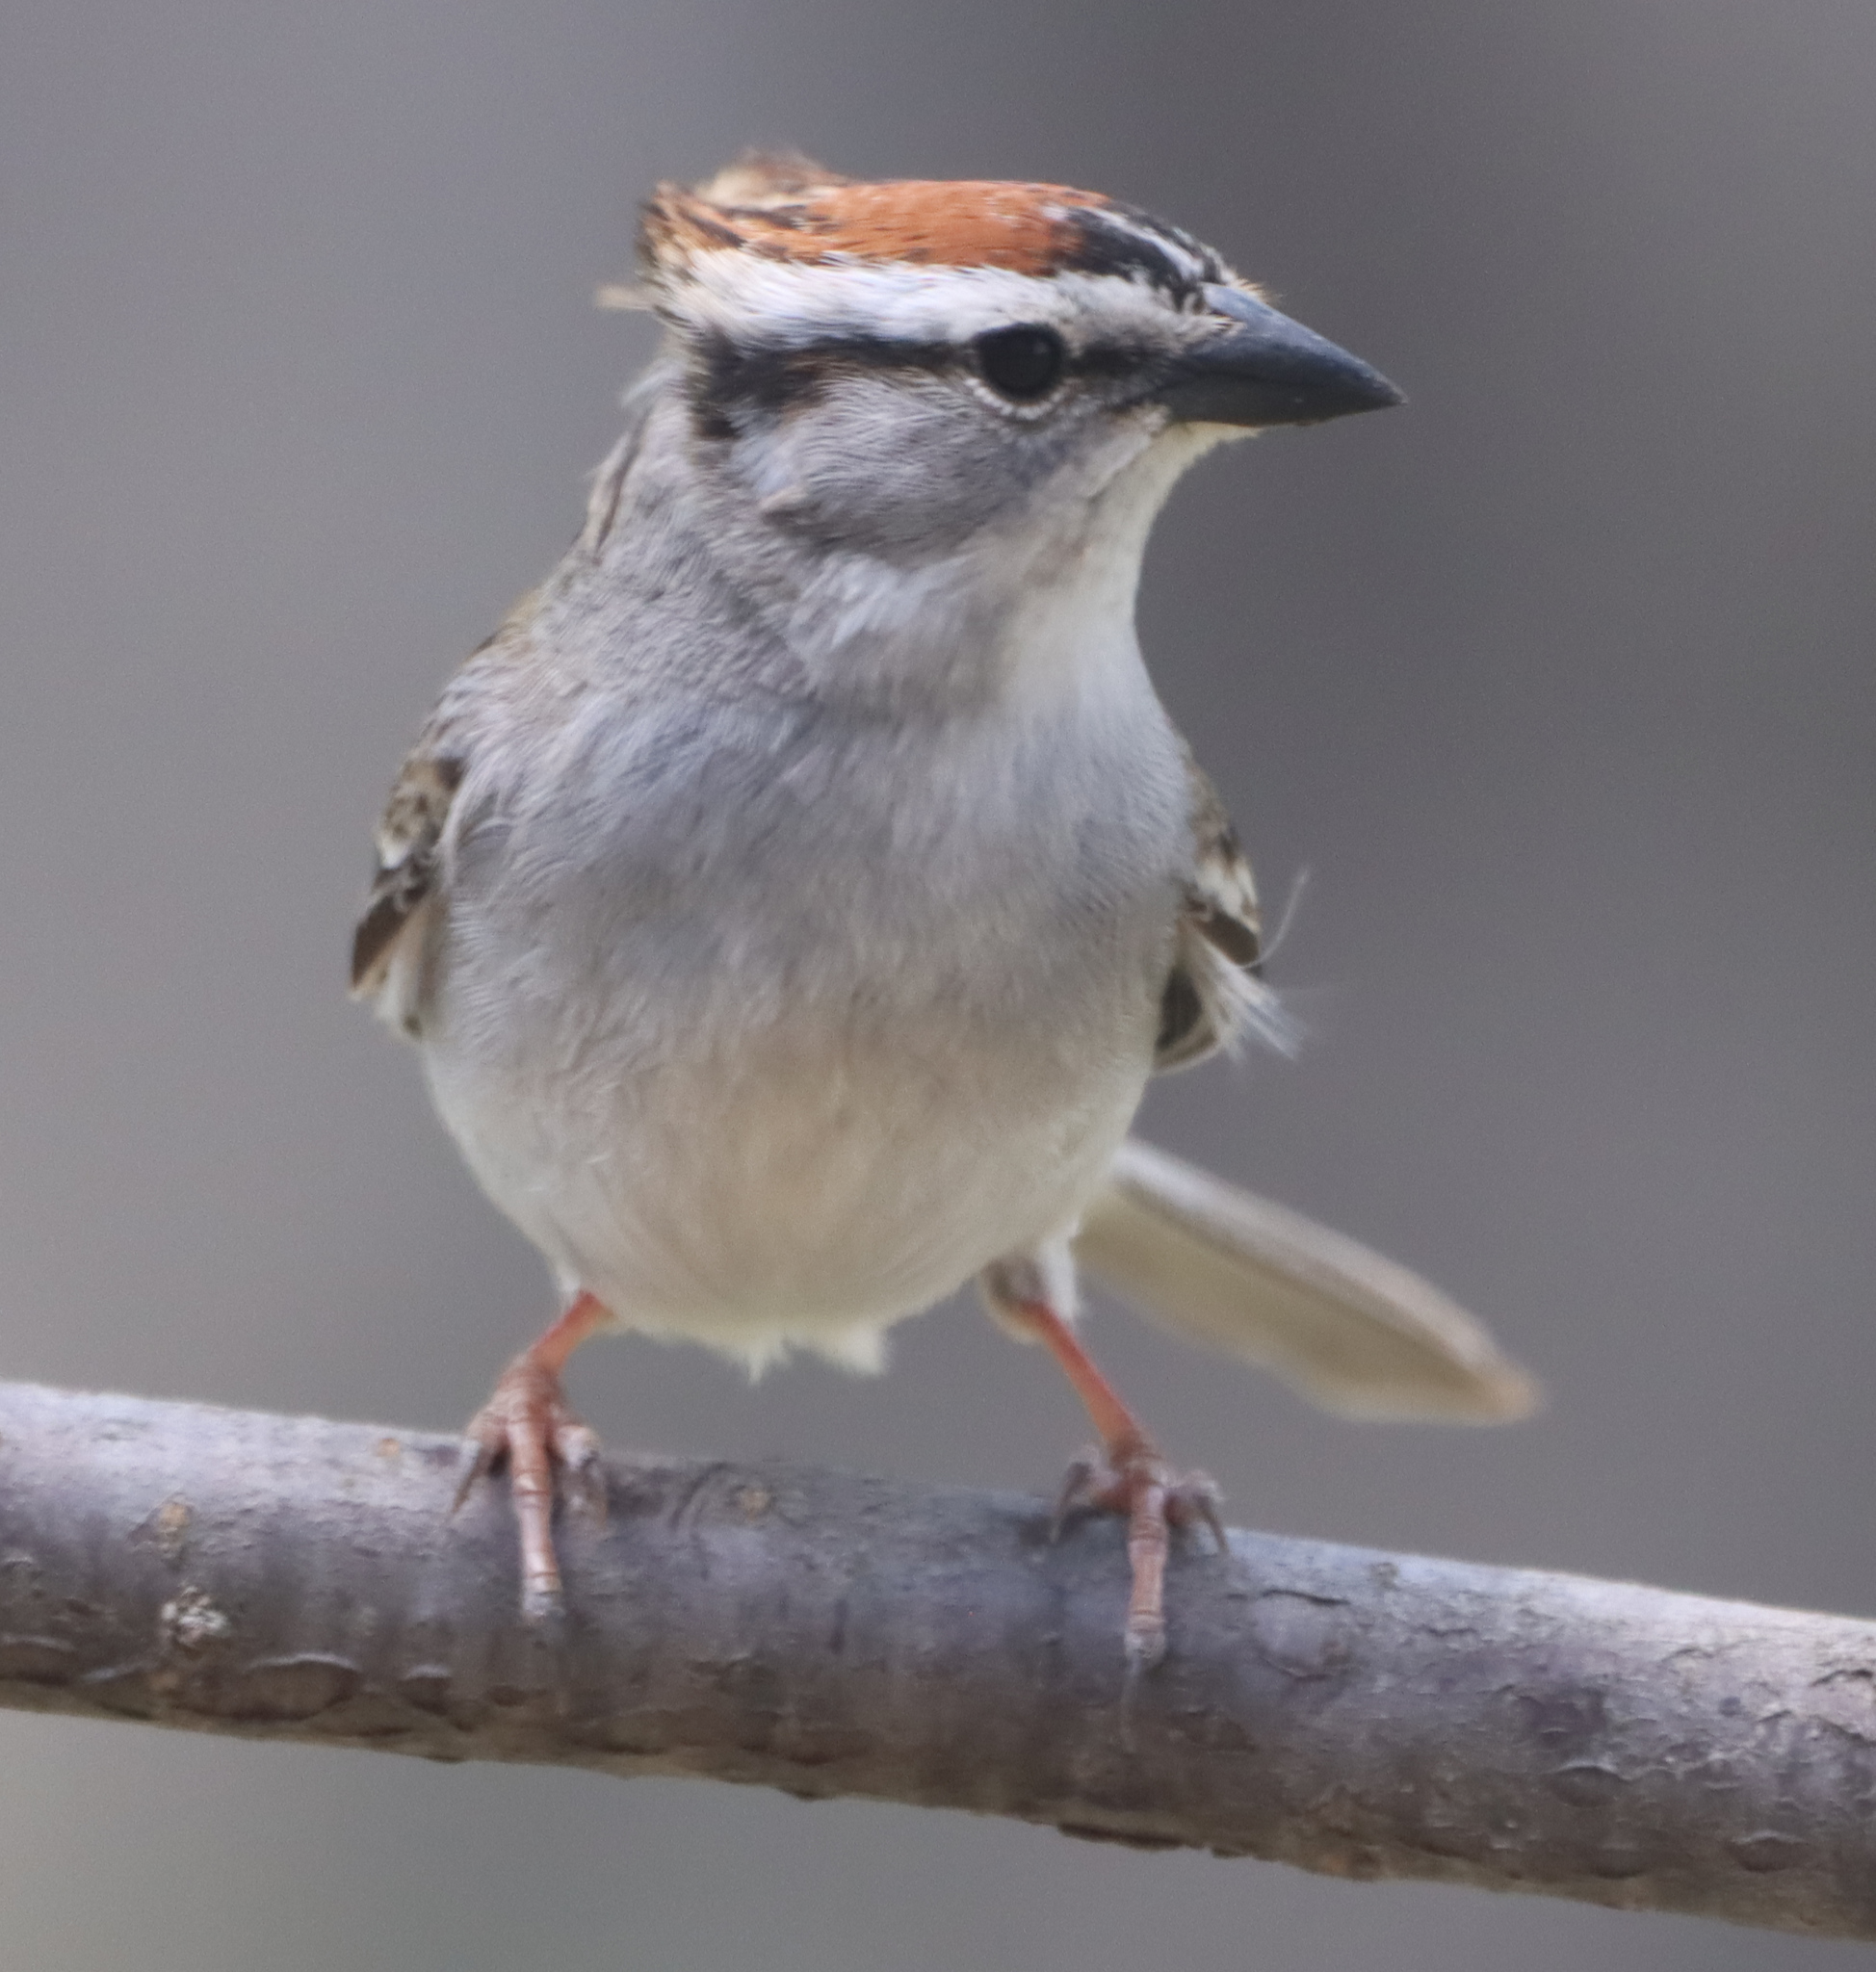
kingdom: Animalia
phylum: Chordata
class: Aves
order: Passeriformes
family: Passerellidae
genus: Spizella
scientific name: Spizella passerina
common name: Chipping sparrow
